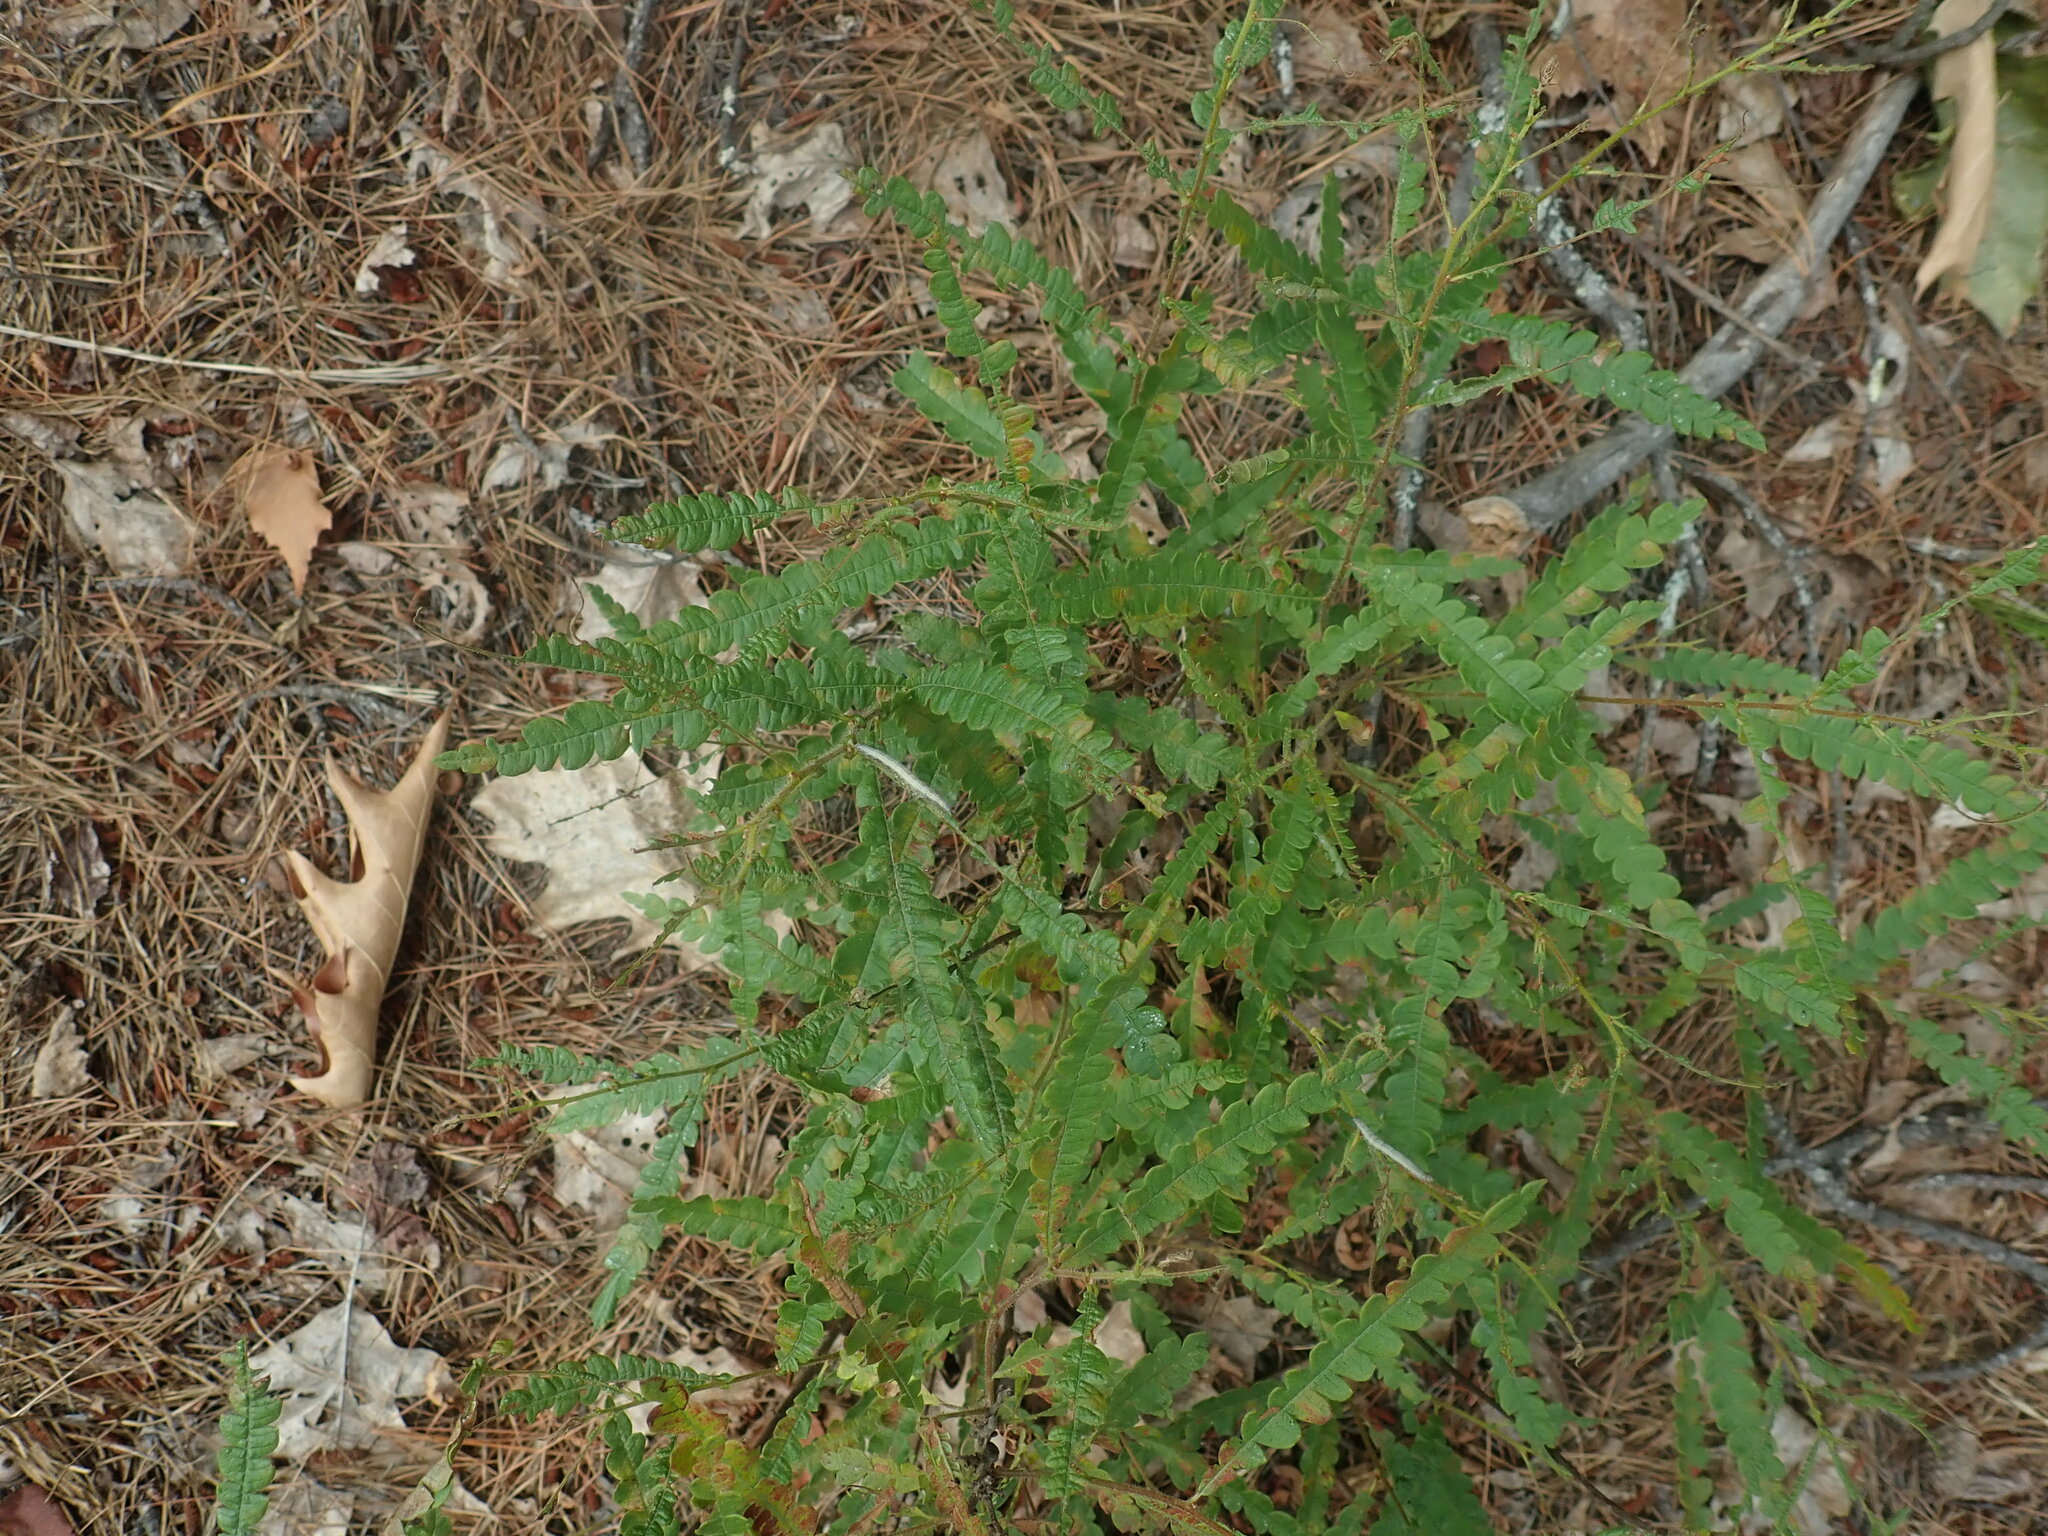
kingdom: Plantae
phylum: Tracheophyta
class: Magnoliopsida
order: Fagales
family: Myricaceae
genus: Comptonia
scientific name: Comptonia peregrina
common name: Sweet-fern
